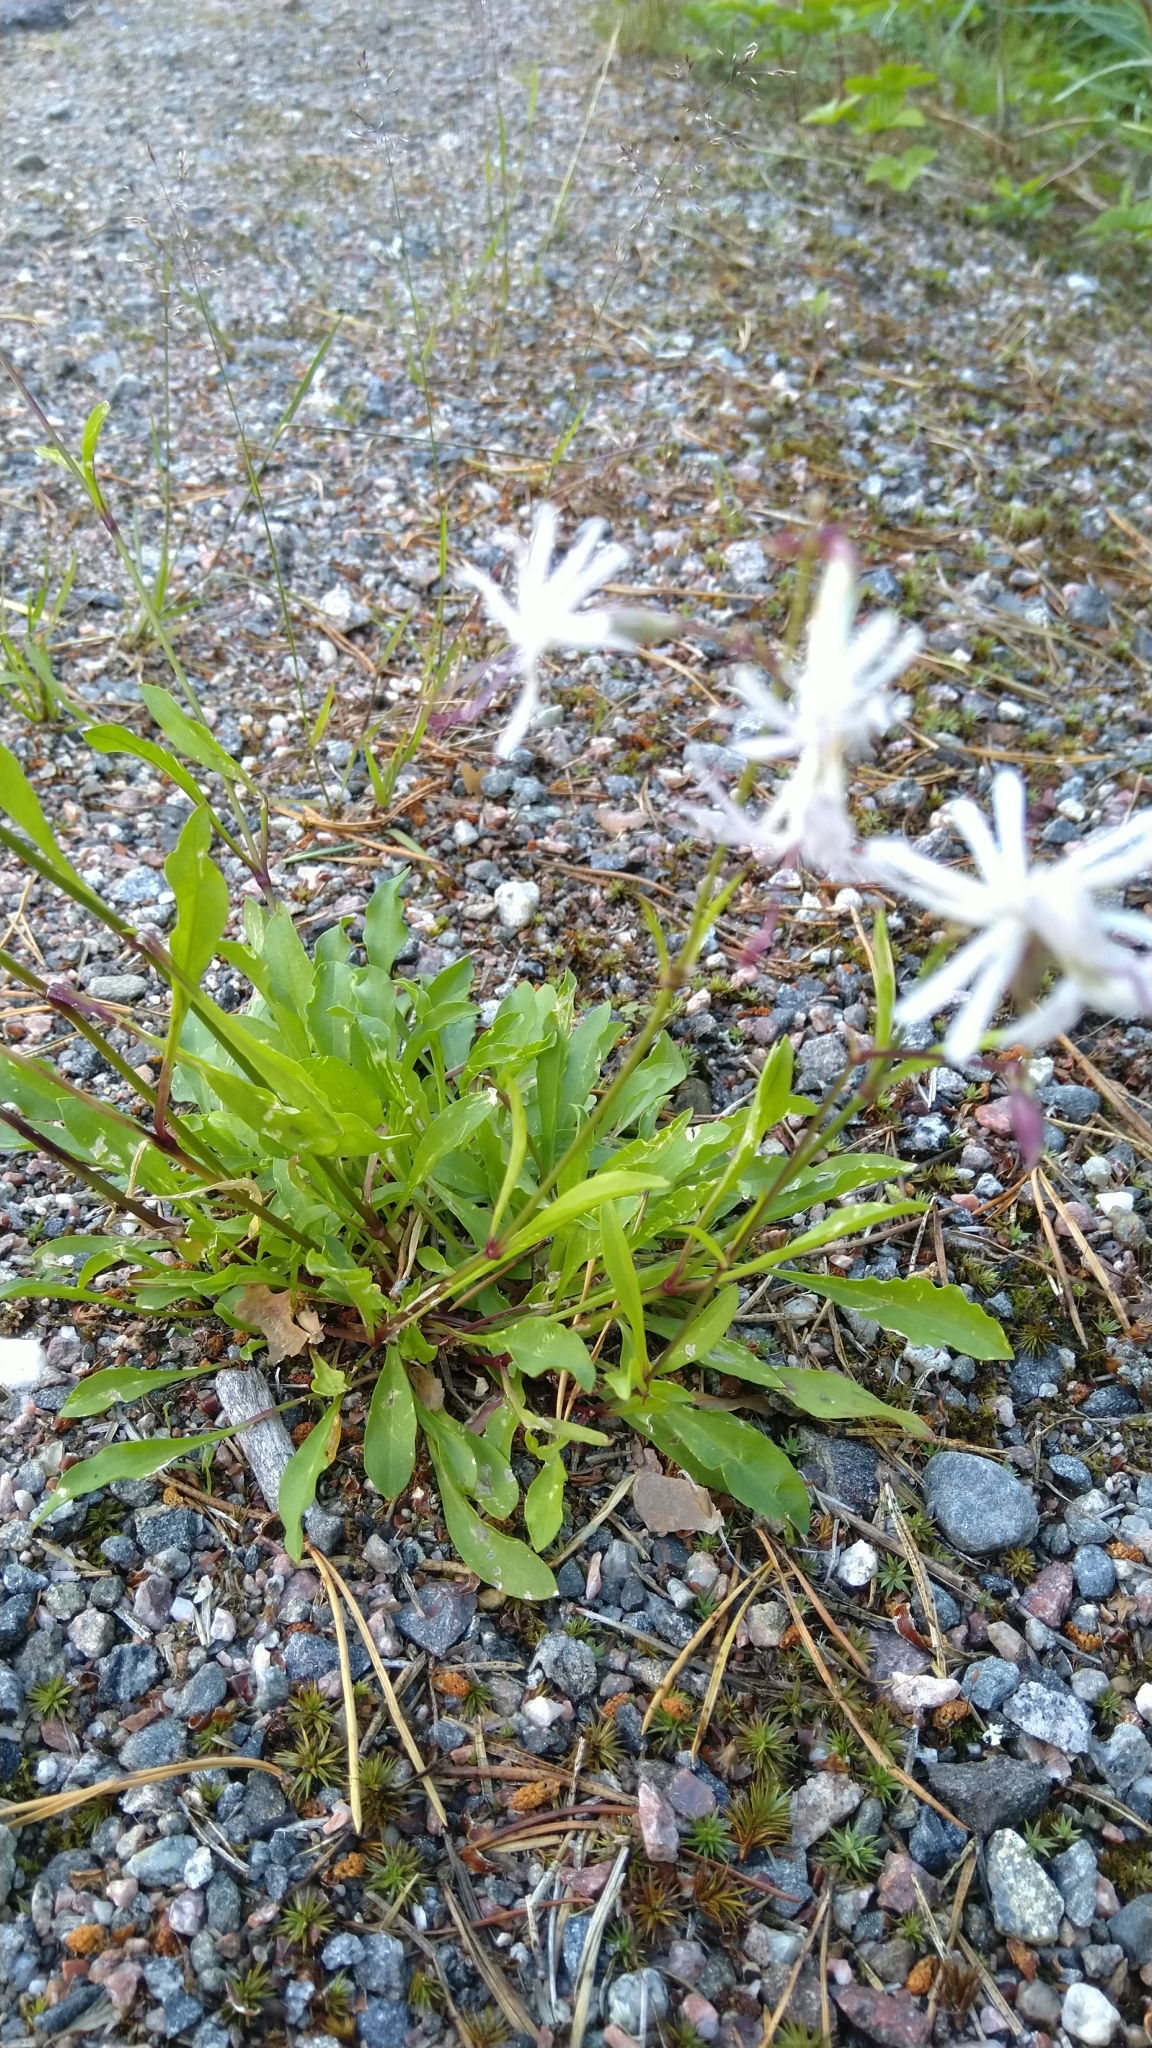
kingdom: Plantae
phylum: Tracheophyta
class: Magnoliopsida
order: Caryophyllales
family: Caryophyllaceae
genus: Silene
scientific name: Silene nutans
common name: Nottingham catchfly
